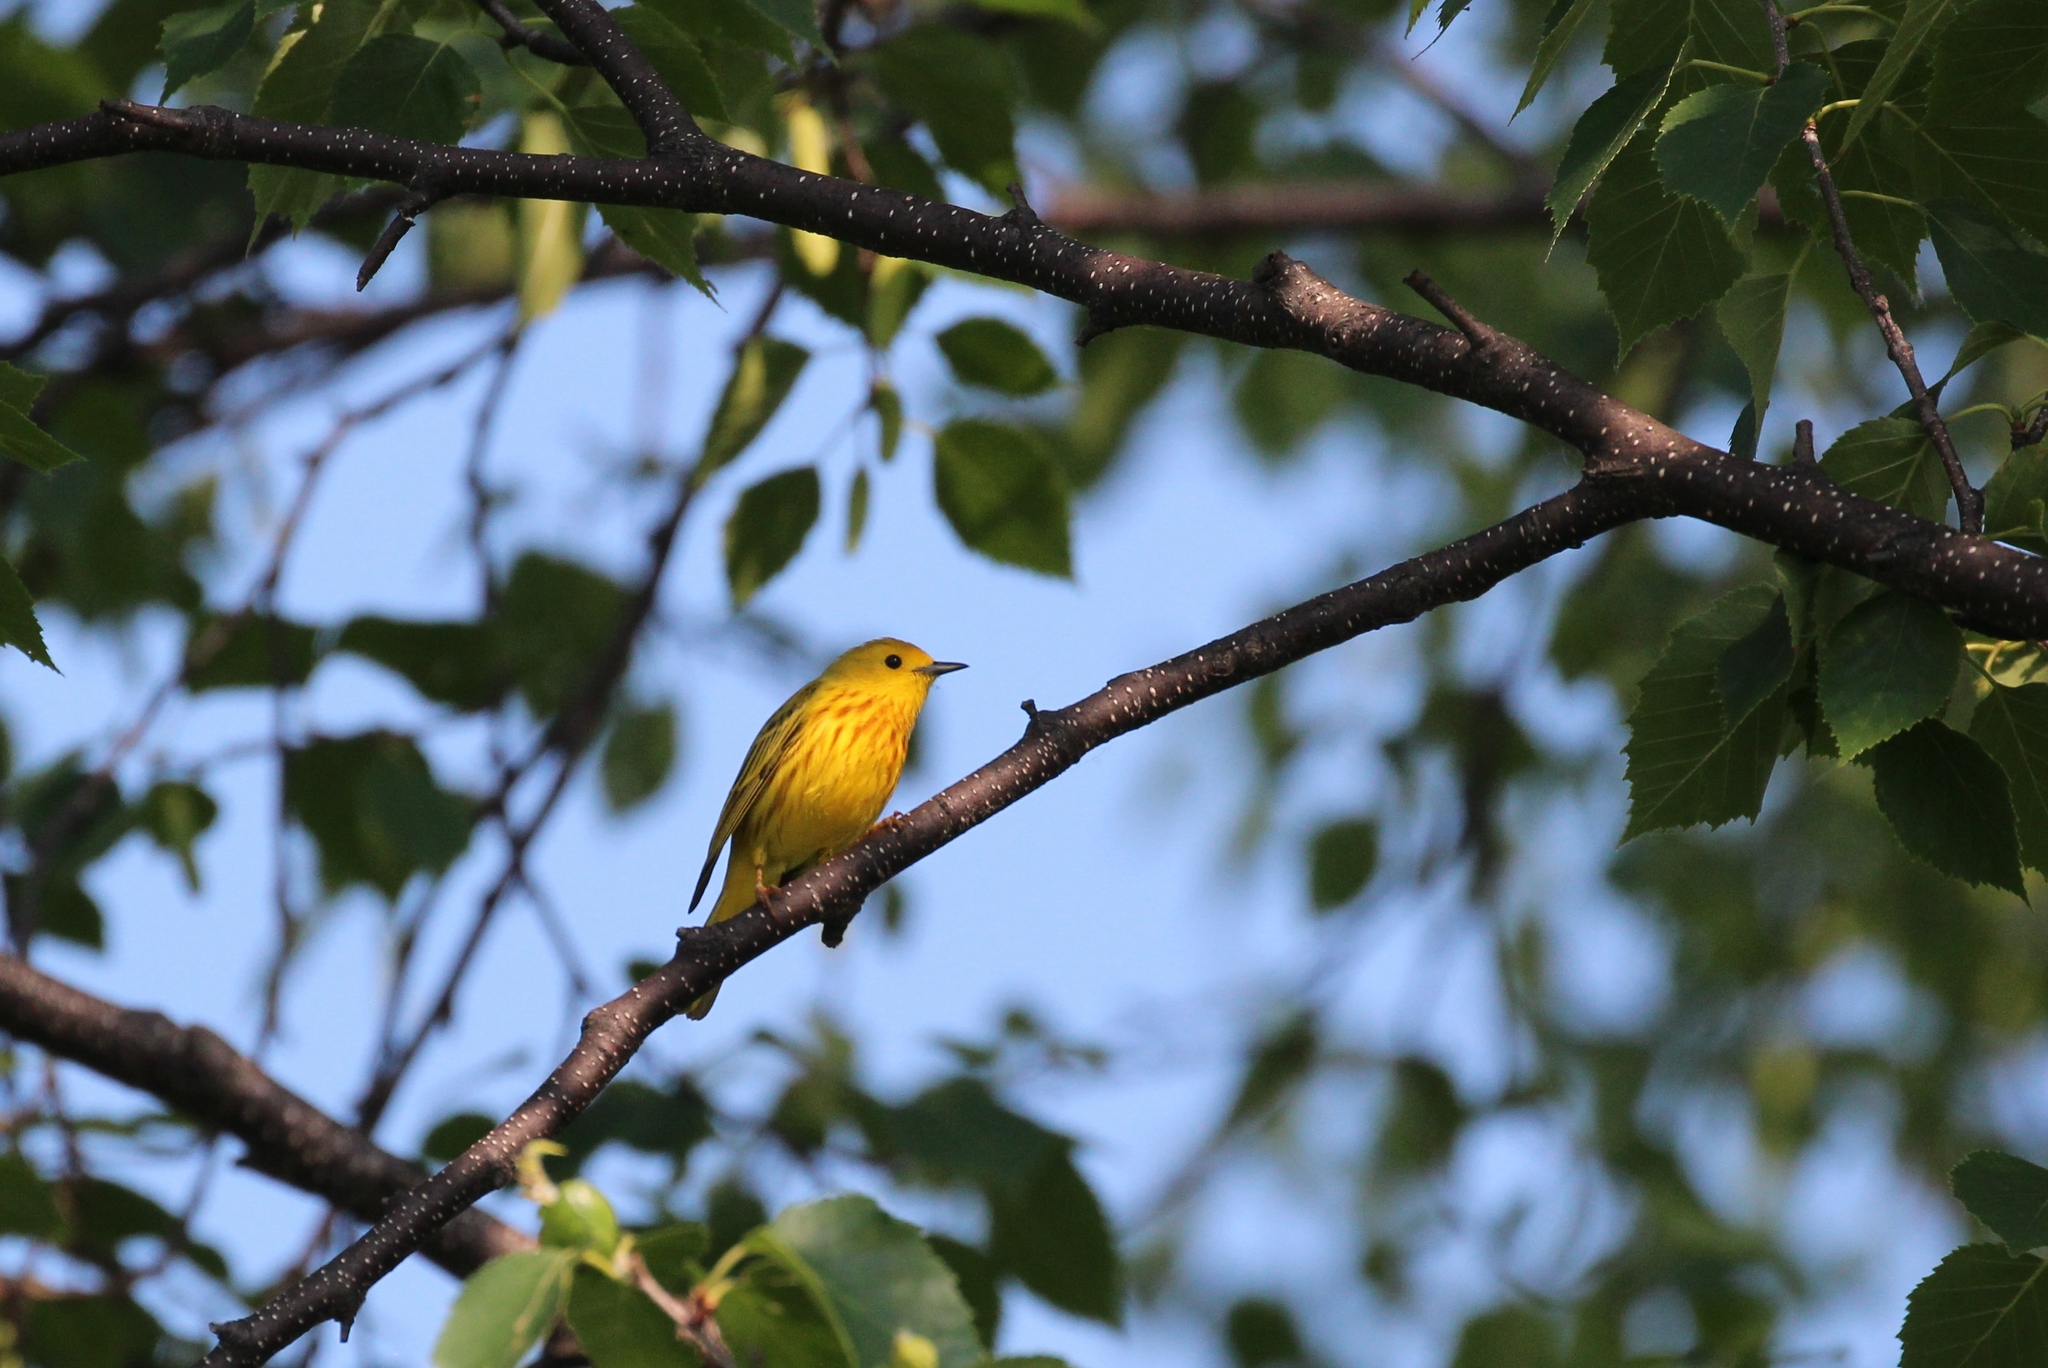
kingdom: Animalia
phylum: Chordata
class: Aves
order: Passeriformes
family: Parulidae
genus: Setophaga
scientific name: Setophaga petechia
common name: Yellow warbler
